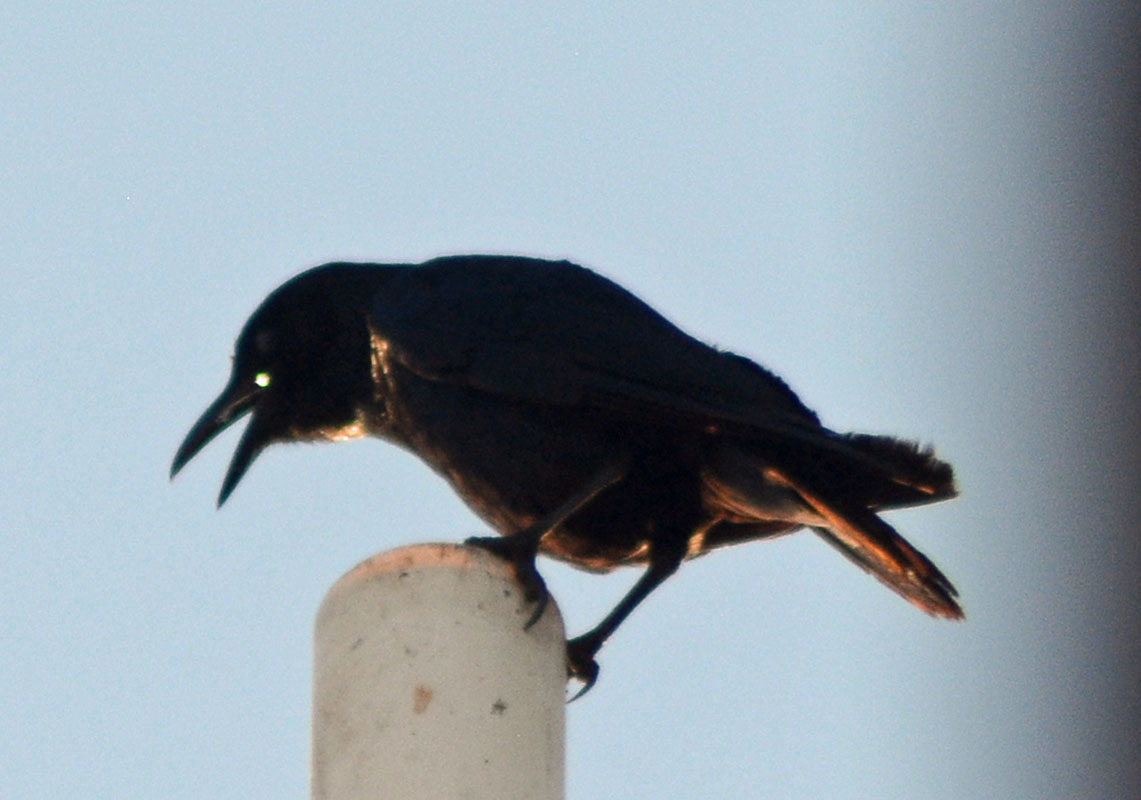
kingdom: Animalia
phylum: Chordata
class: Aves
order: Passeriformes
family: Corvidae
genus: Corvus
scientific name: Corvus sinaloae
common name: Sinaloa crow
